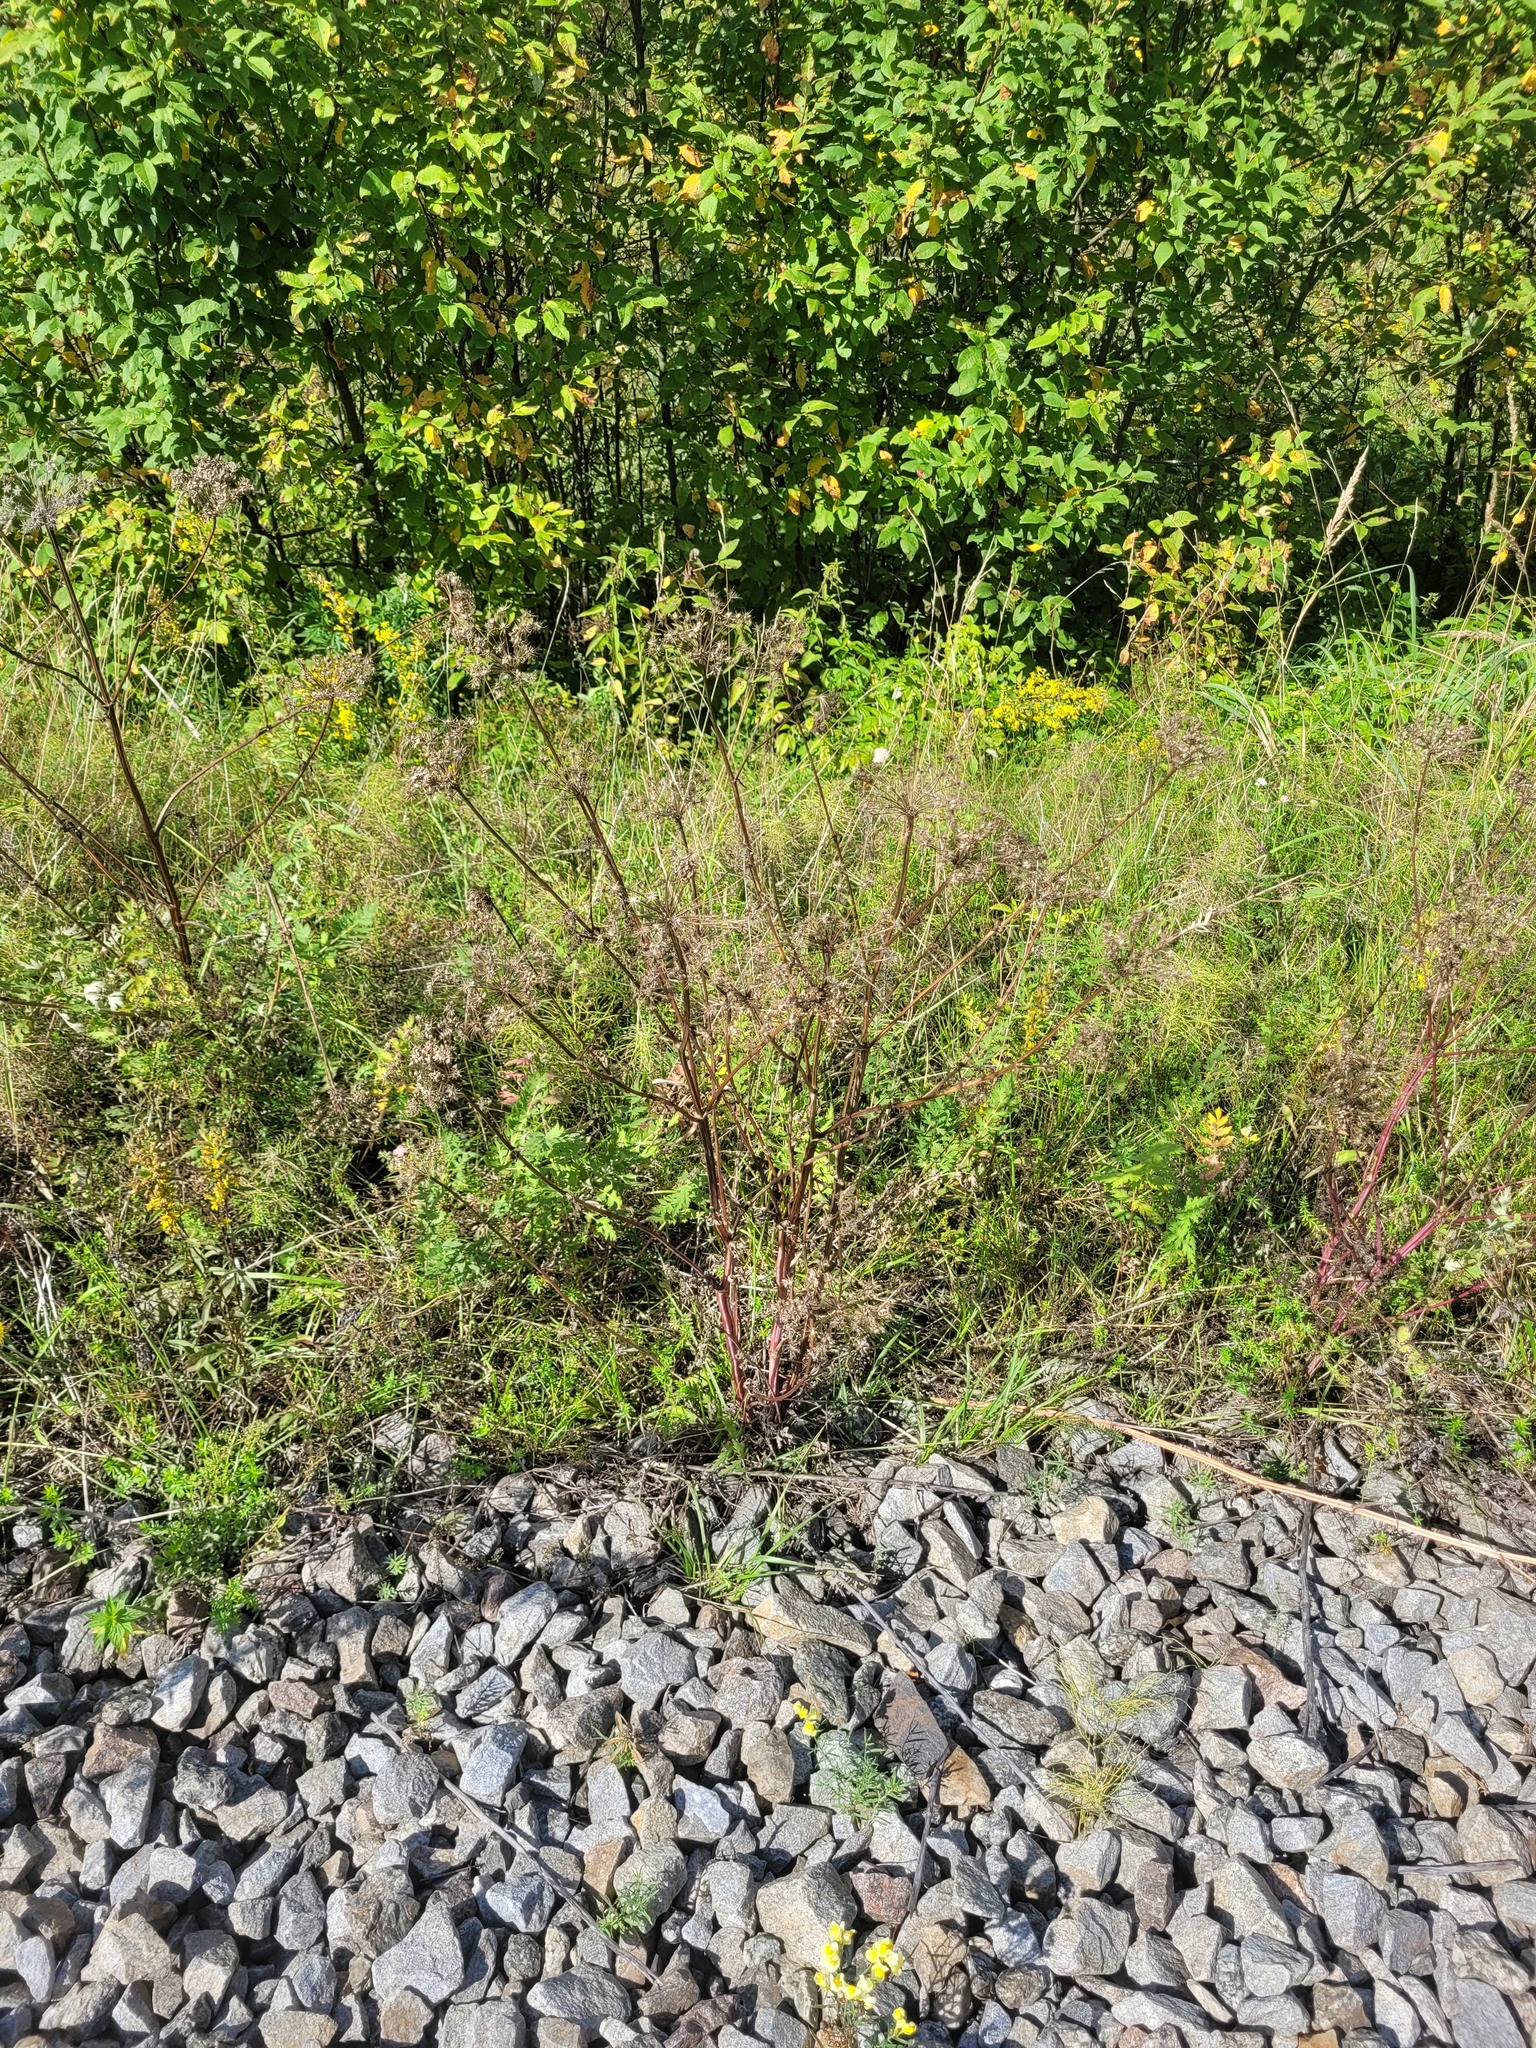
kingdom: Plantae
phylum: Tracheophyta
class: Magnoliopsida
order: Apiales
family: Apiaceae
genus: Seseli
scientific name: Seseli libanotis
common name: Mooncarrot
